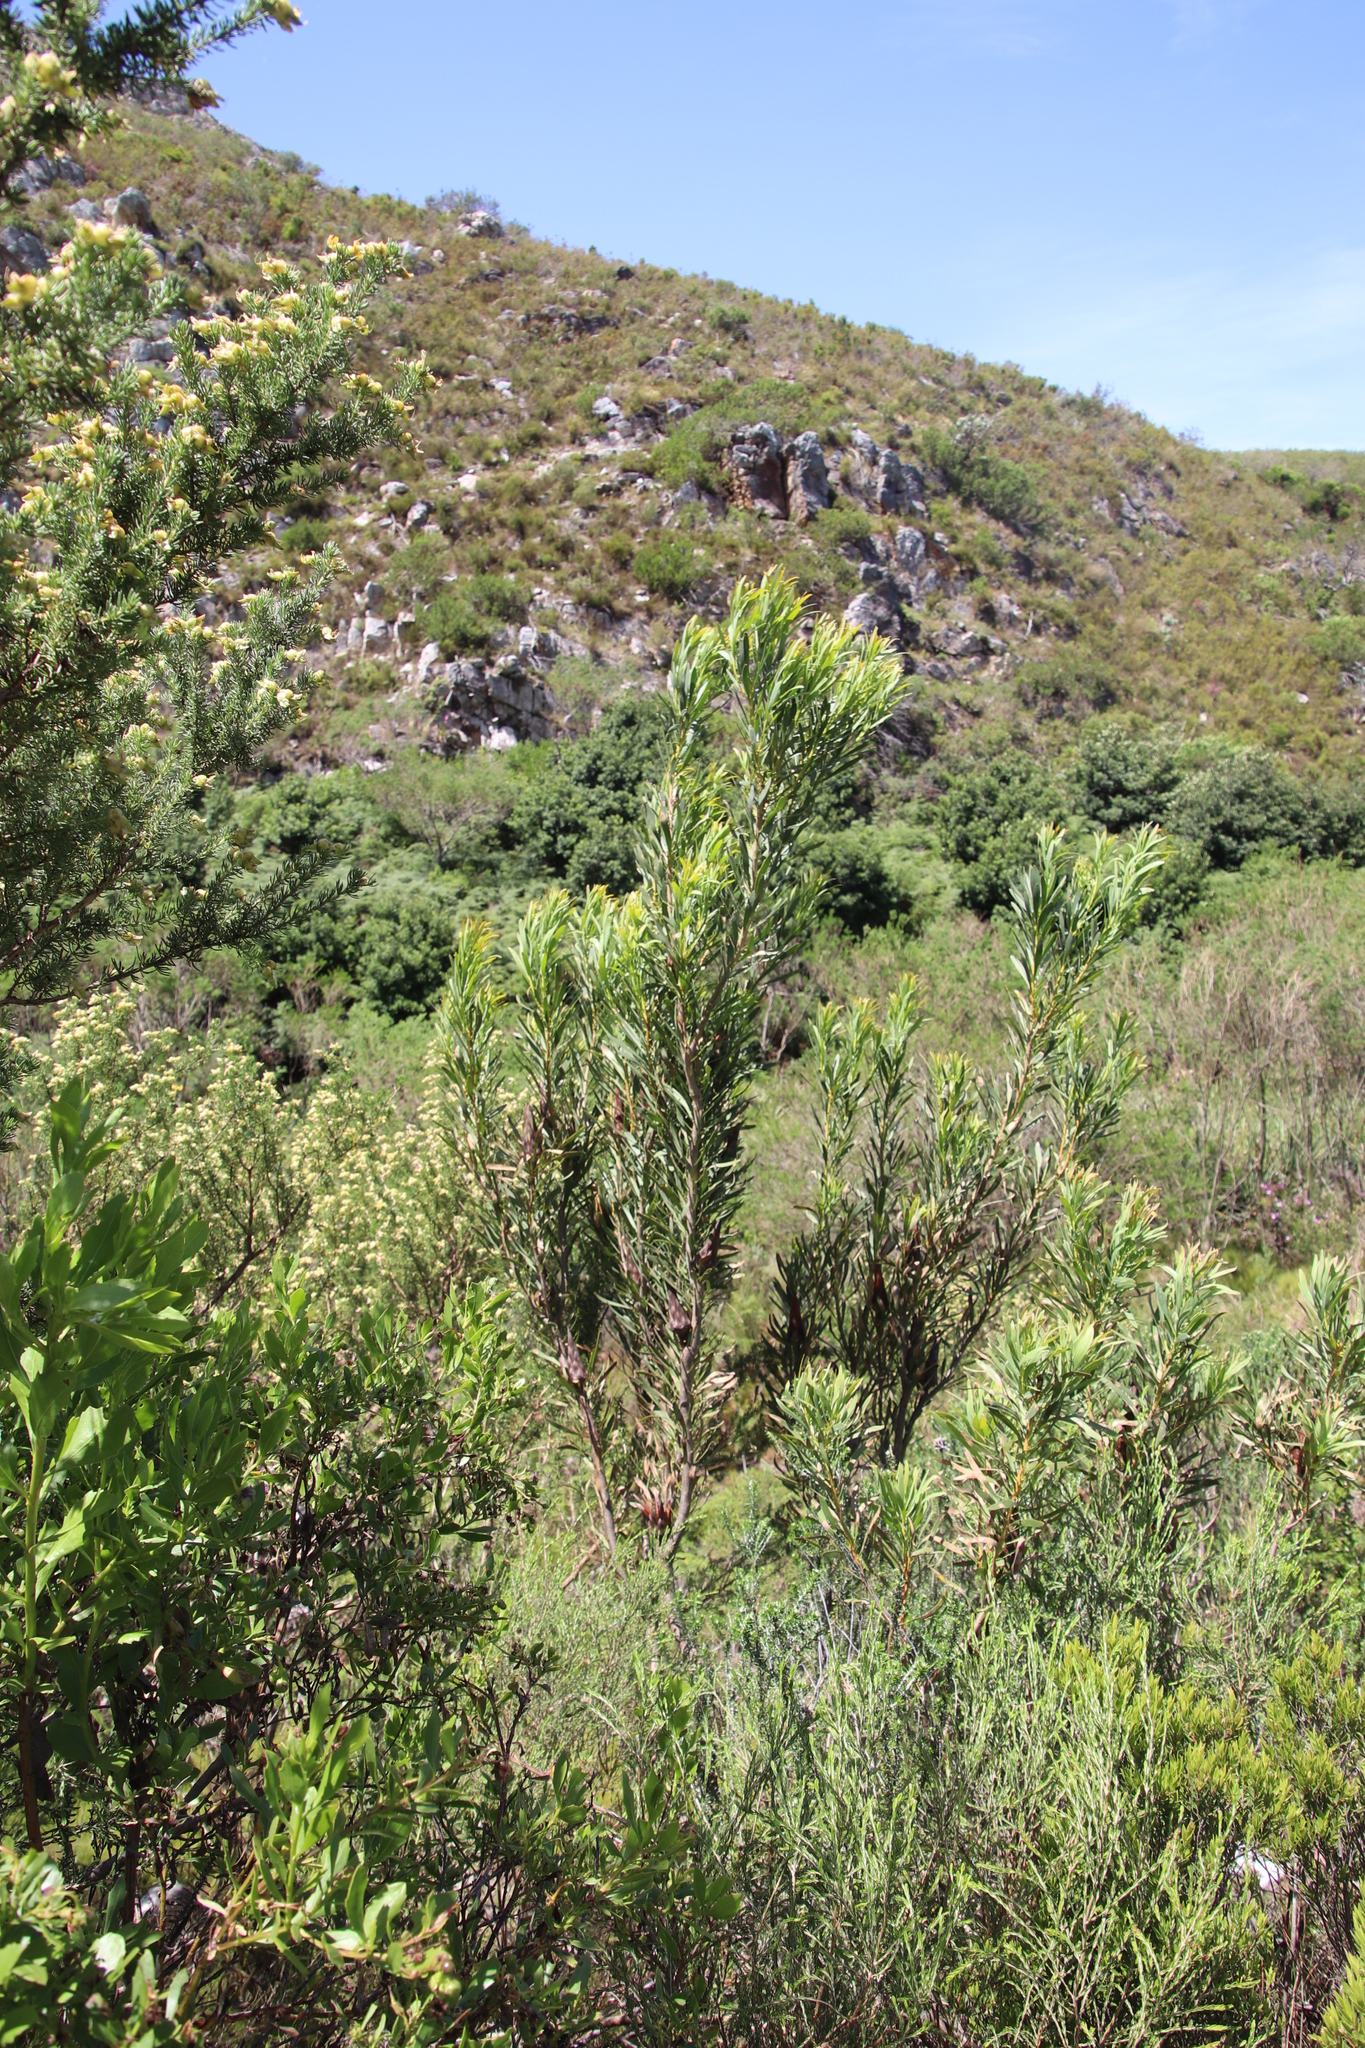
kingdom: Plantae
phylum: Tracheophyta
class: Magnoliopsida
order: Proteales
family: Proteaceae
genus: Protea
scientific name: Protea repens
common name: Sugarbush
